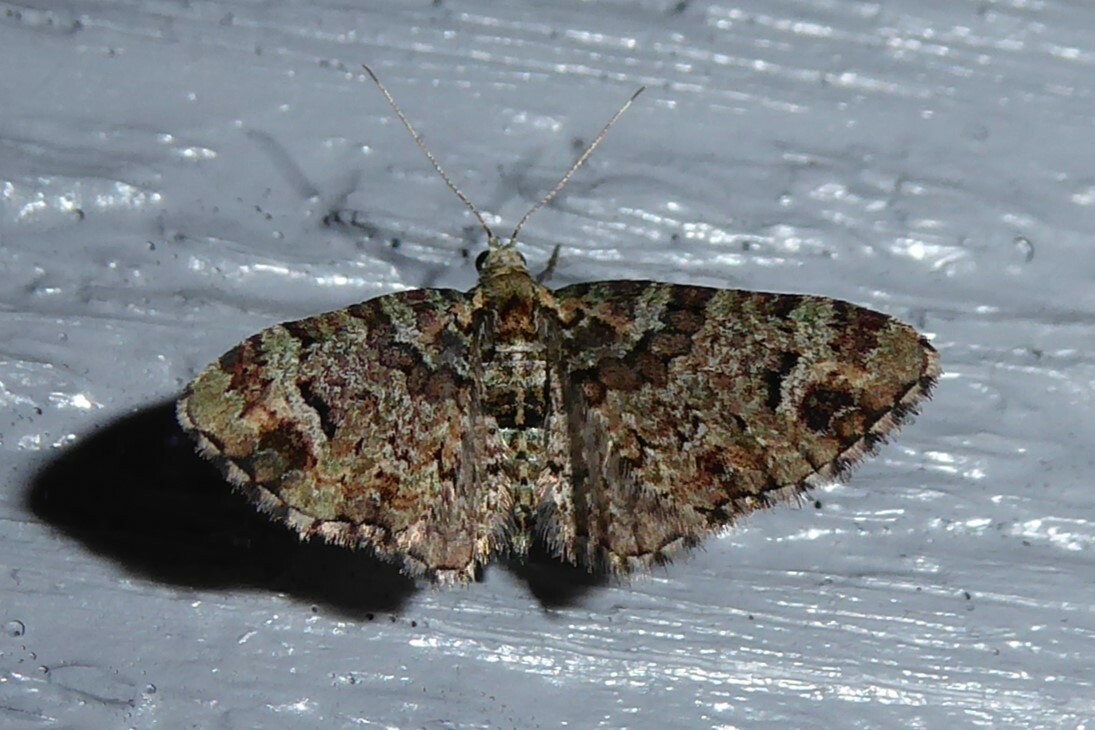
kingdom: Animalia
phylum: Arthropoda
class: Insecta
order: Lepidoptera
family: Geometridae
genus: Pasiphila
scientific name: Pasiphila bilineolata
